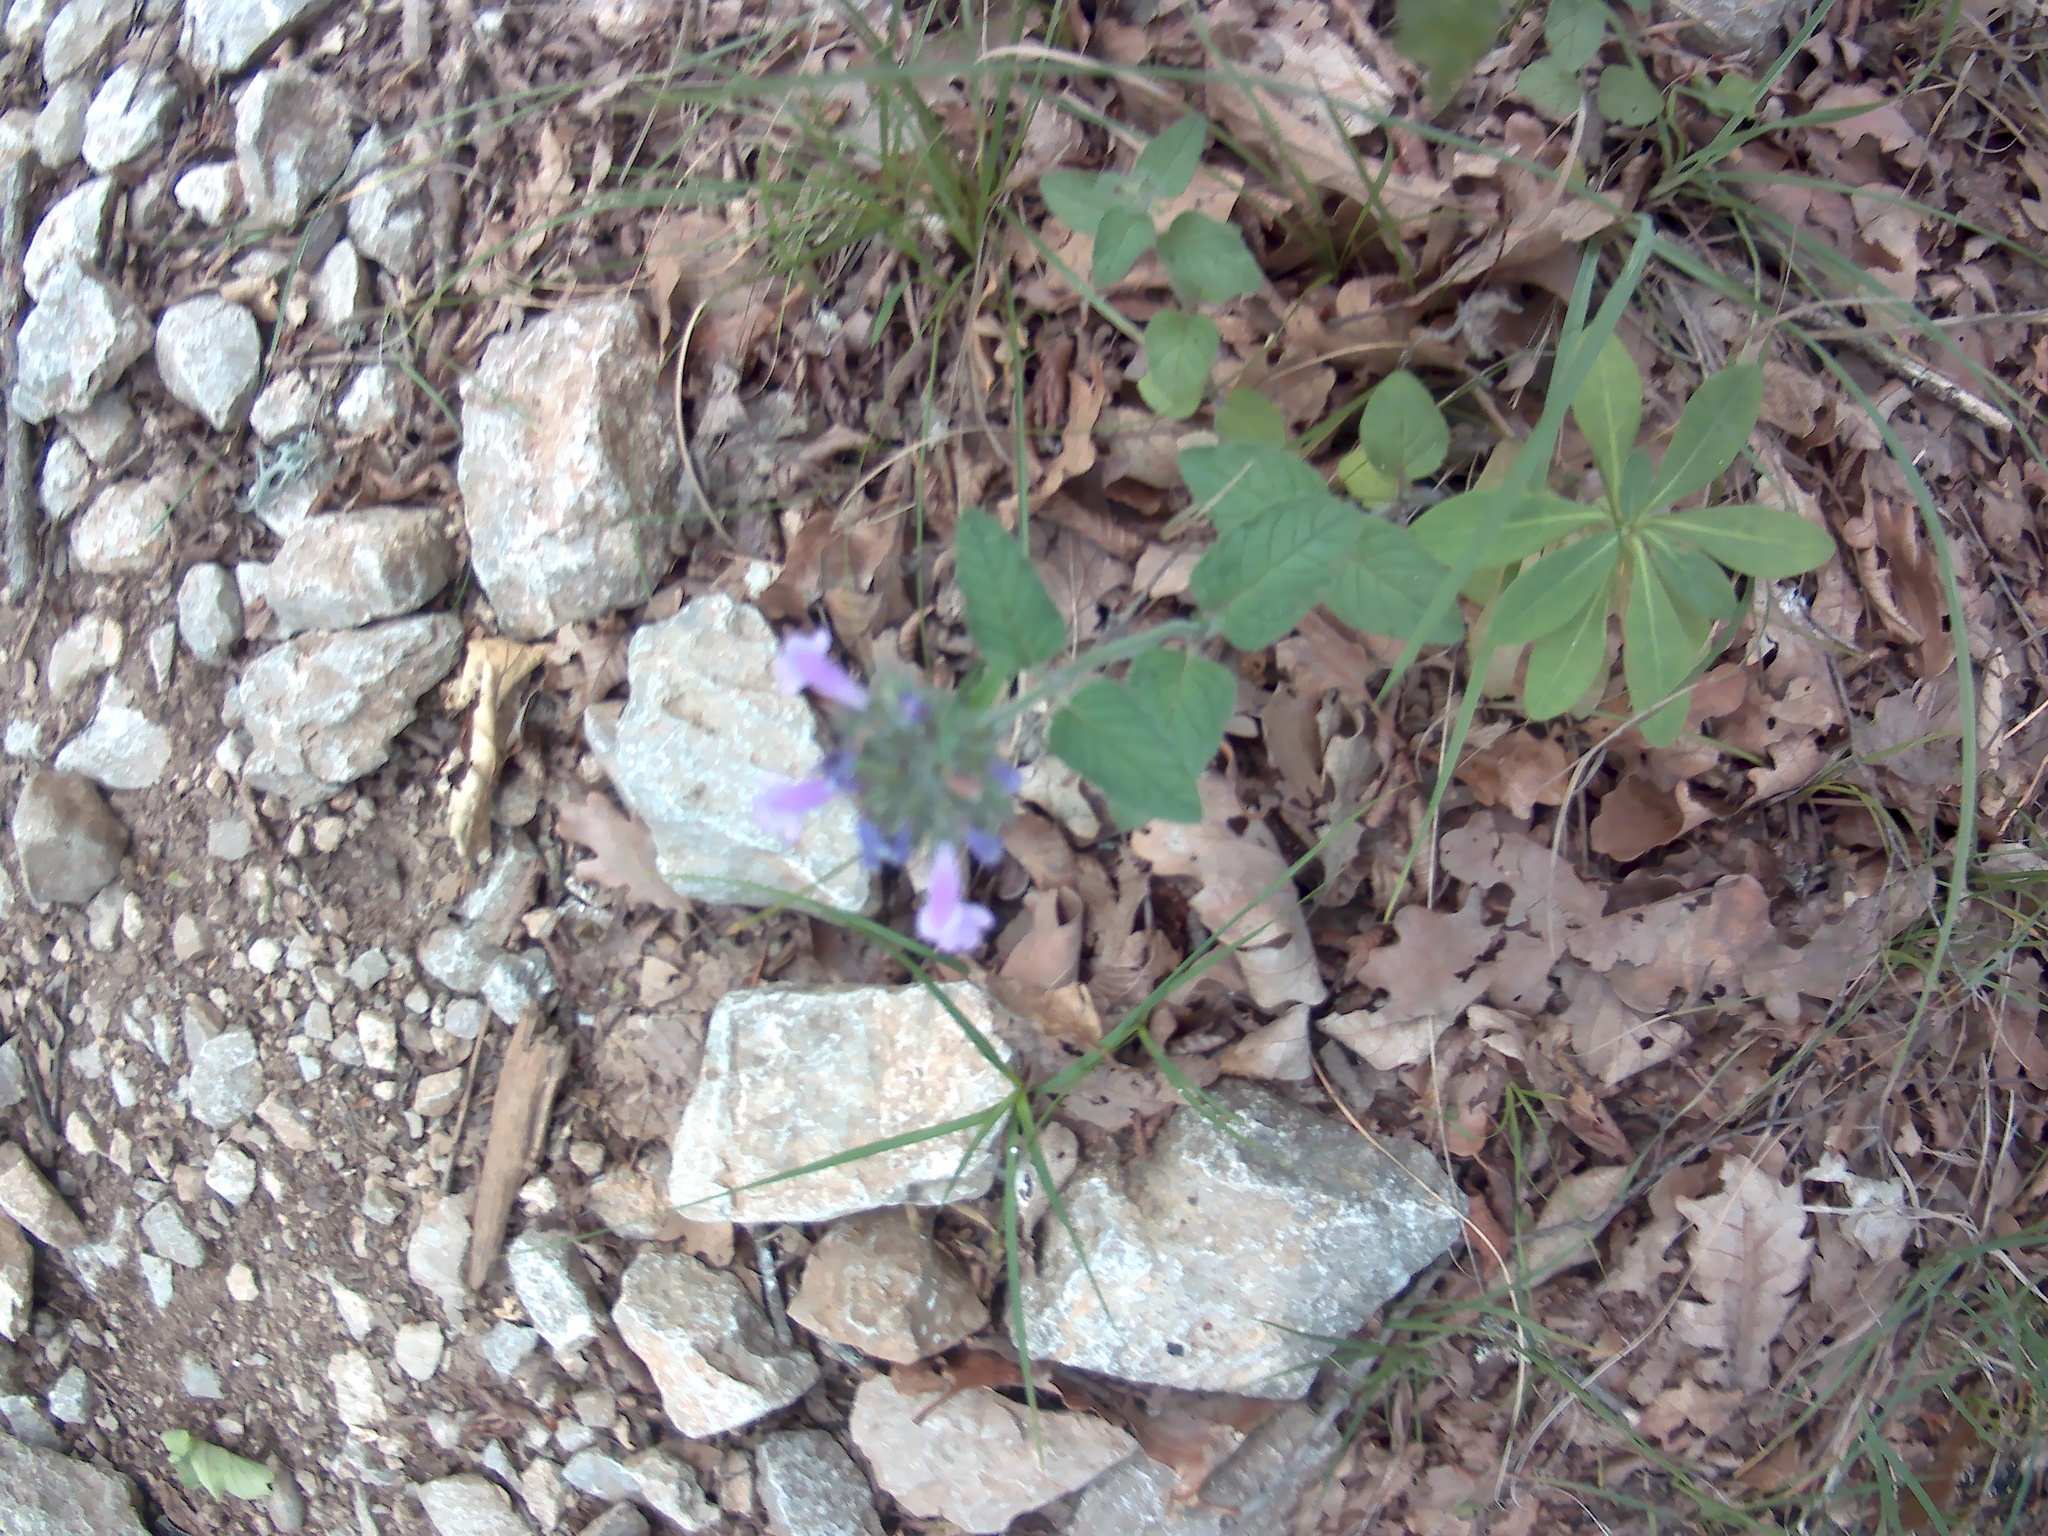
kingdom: Plantae
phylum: Tracheophyta
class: Magnoliopsida
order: Lamiales
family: Lamiaceae
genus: Clinopodium
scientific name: Clinopodium vulgare
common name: Wild basil
